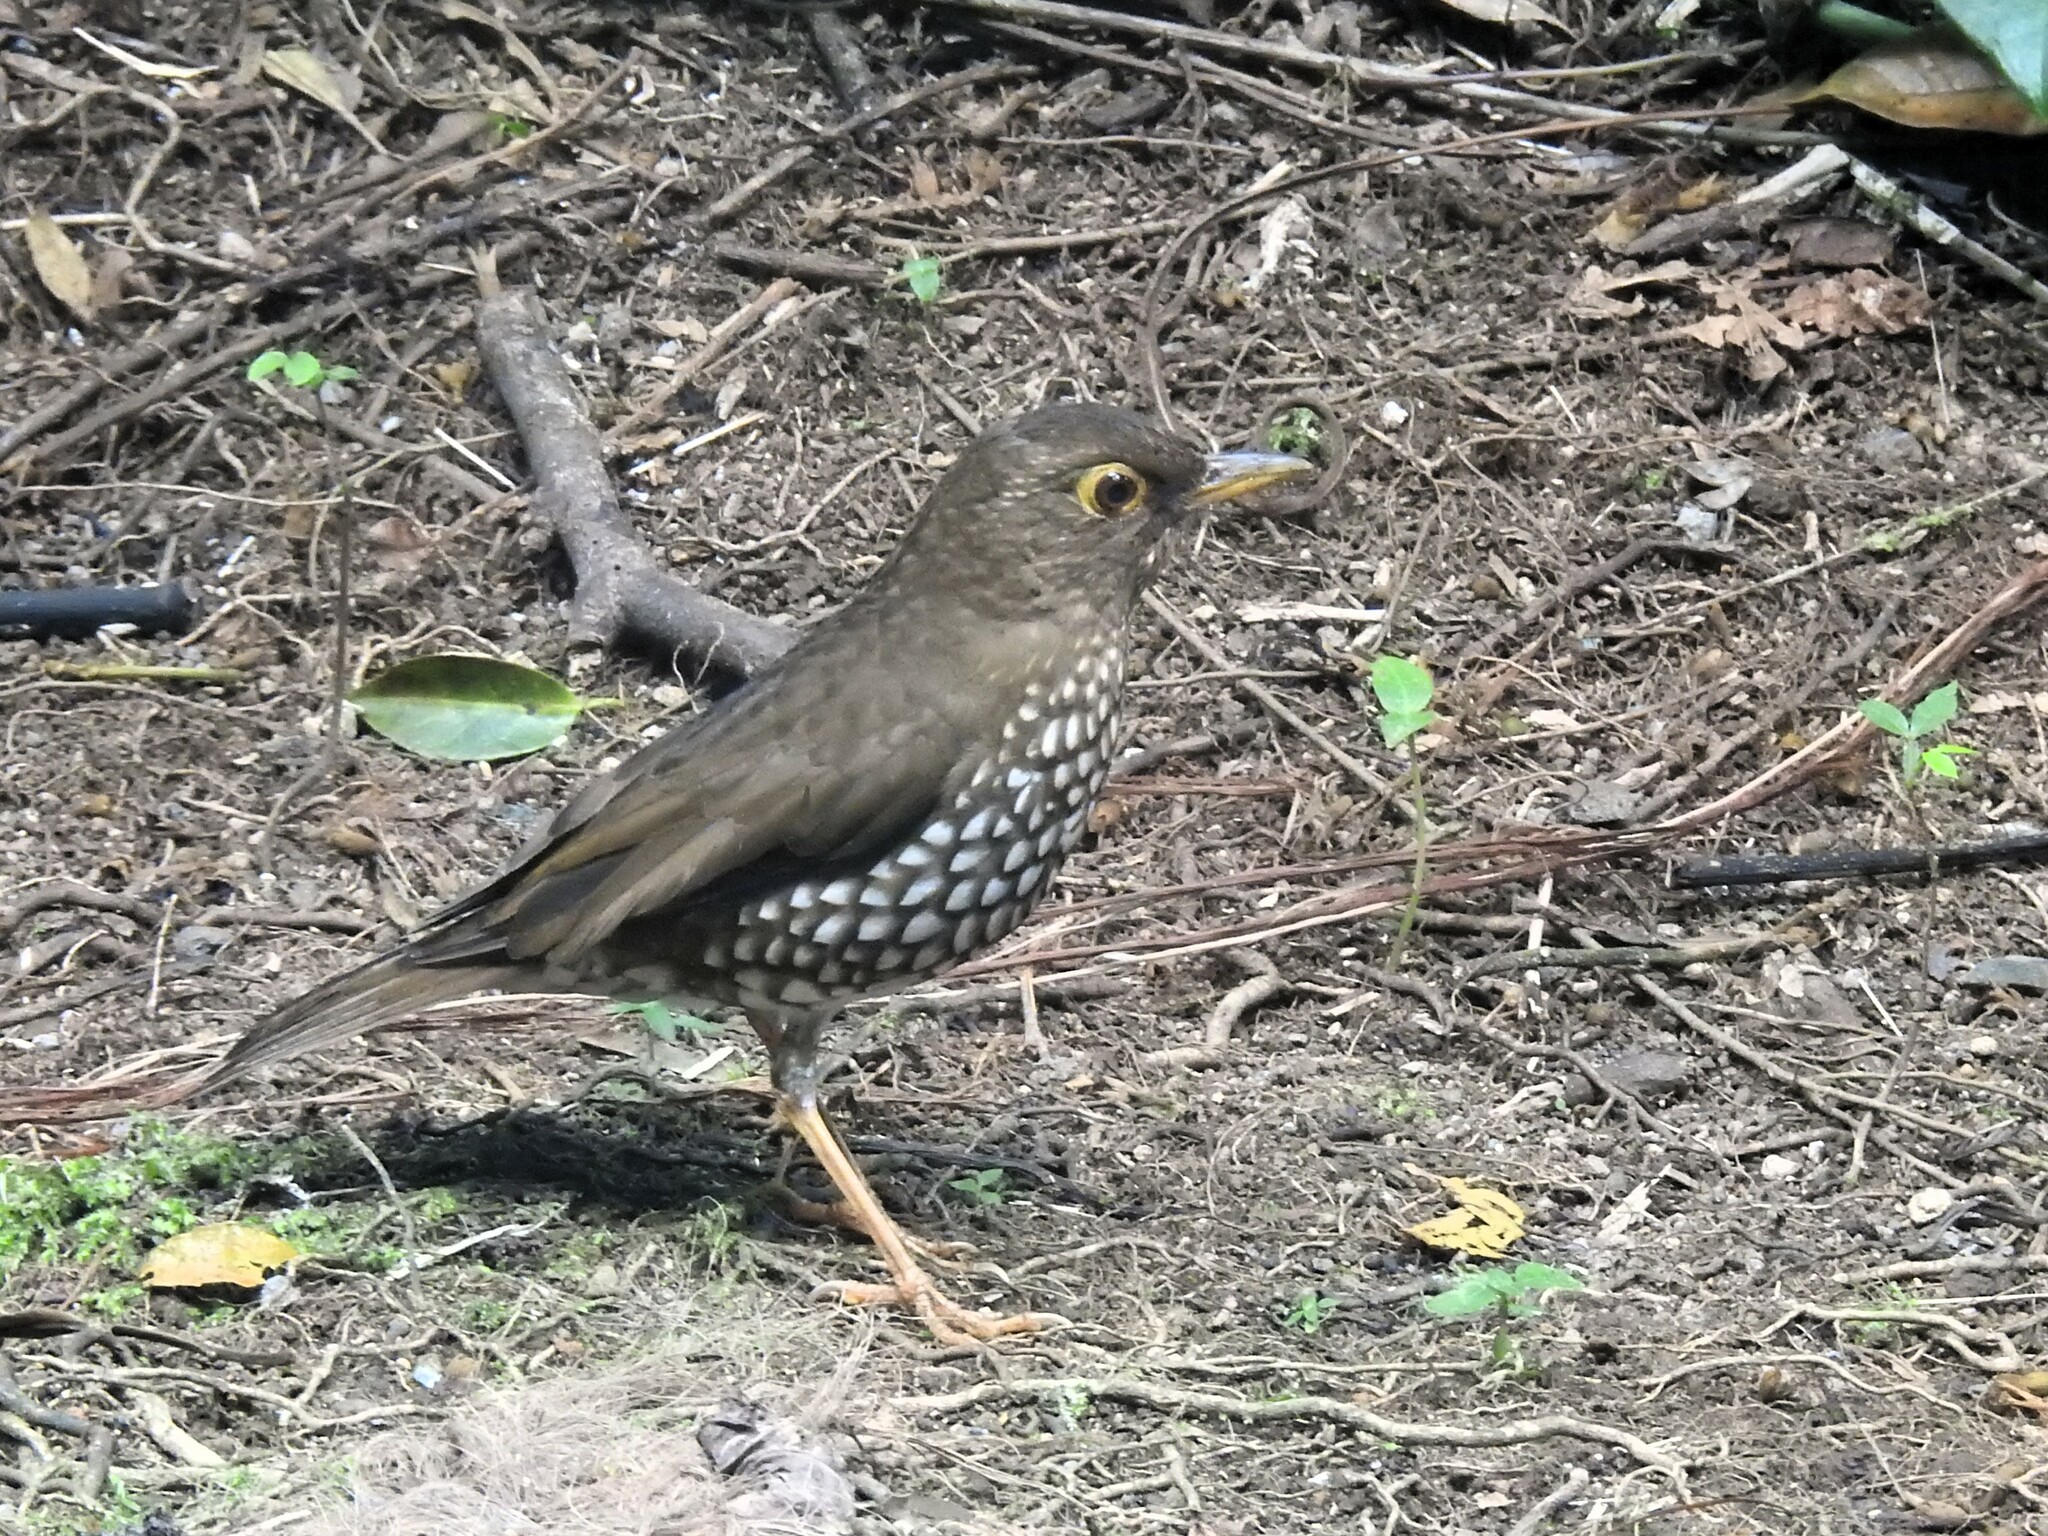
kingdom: Animalia
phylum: Chordata
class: Aves
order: Passeriformes
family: Turdidae
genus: Turdus
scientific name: Turdus lherminieri
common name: Forest thrush
